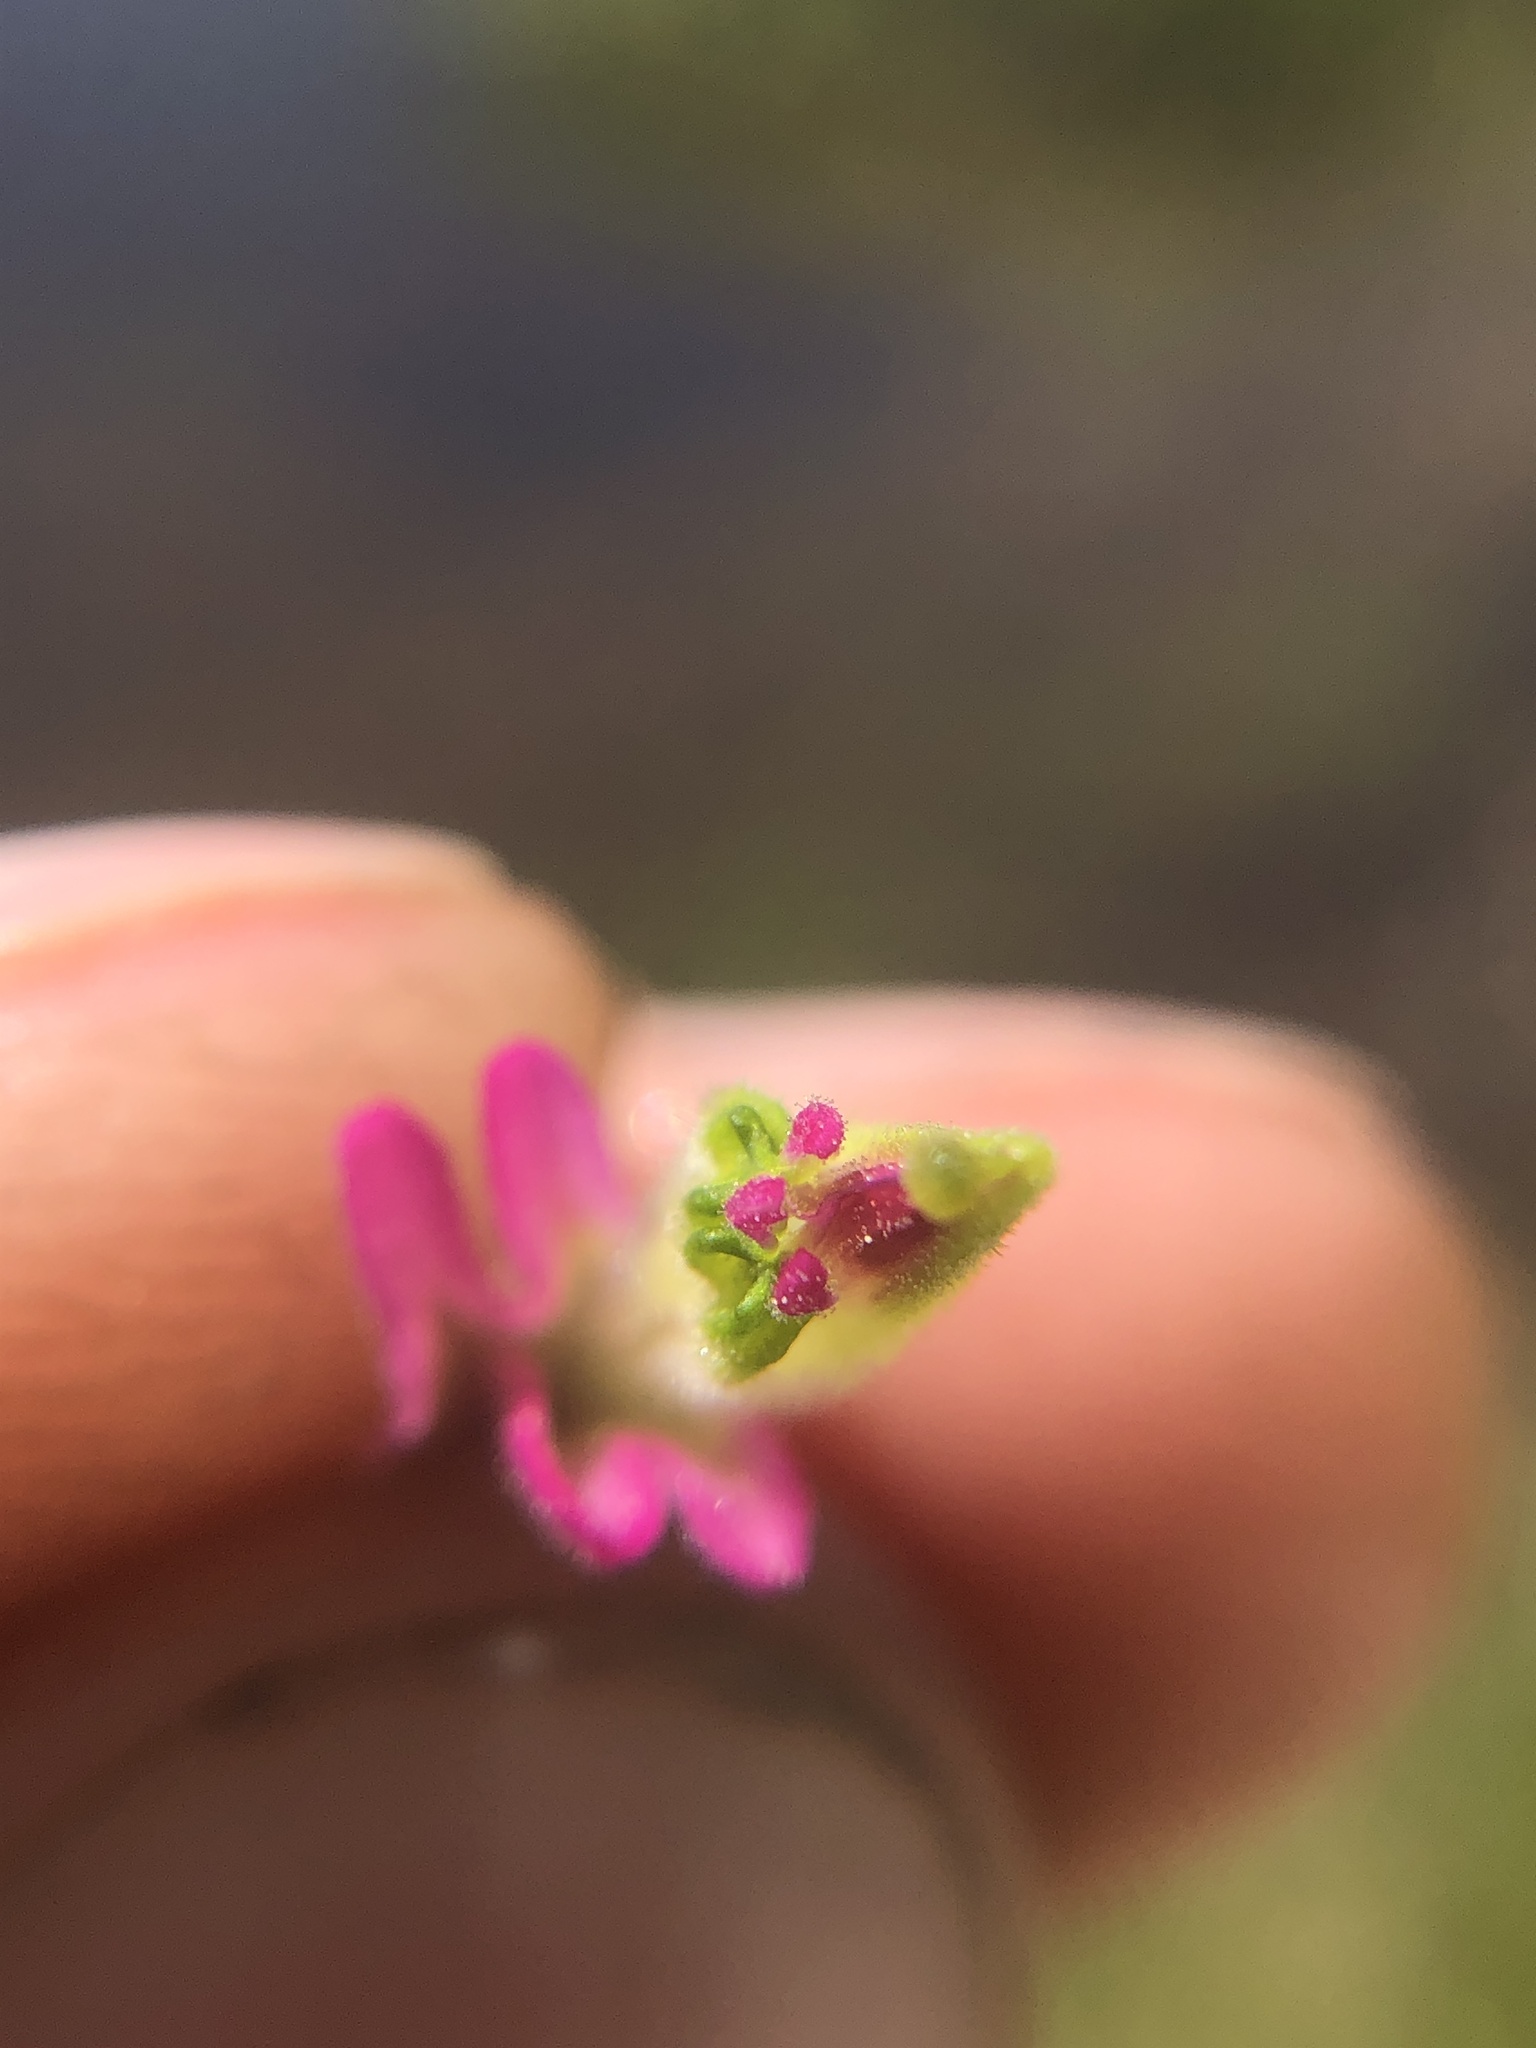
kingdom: Plantae
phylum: Tracheophyta
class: Magnoliopsida
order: Lamiales
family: Orobanchaceae
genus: Castilleja
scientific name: Castilleja lemmonii
